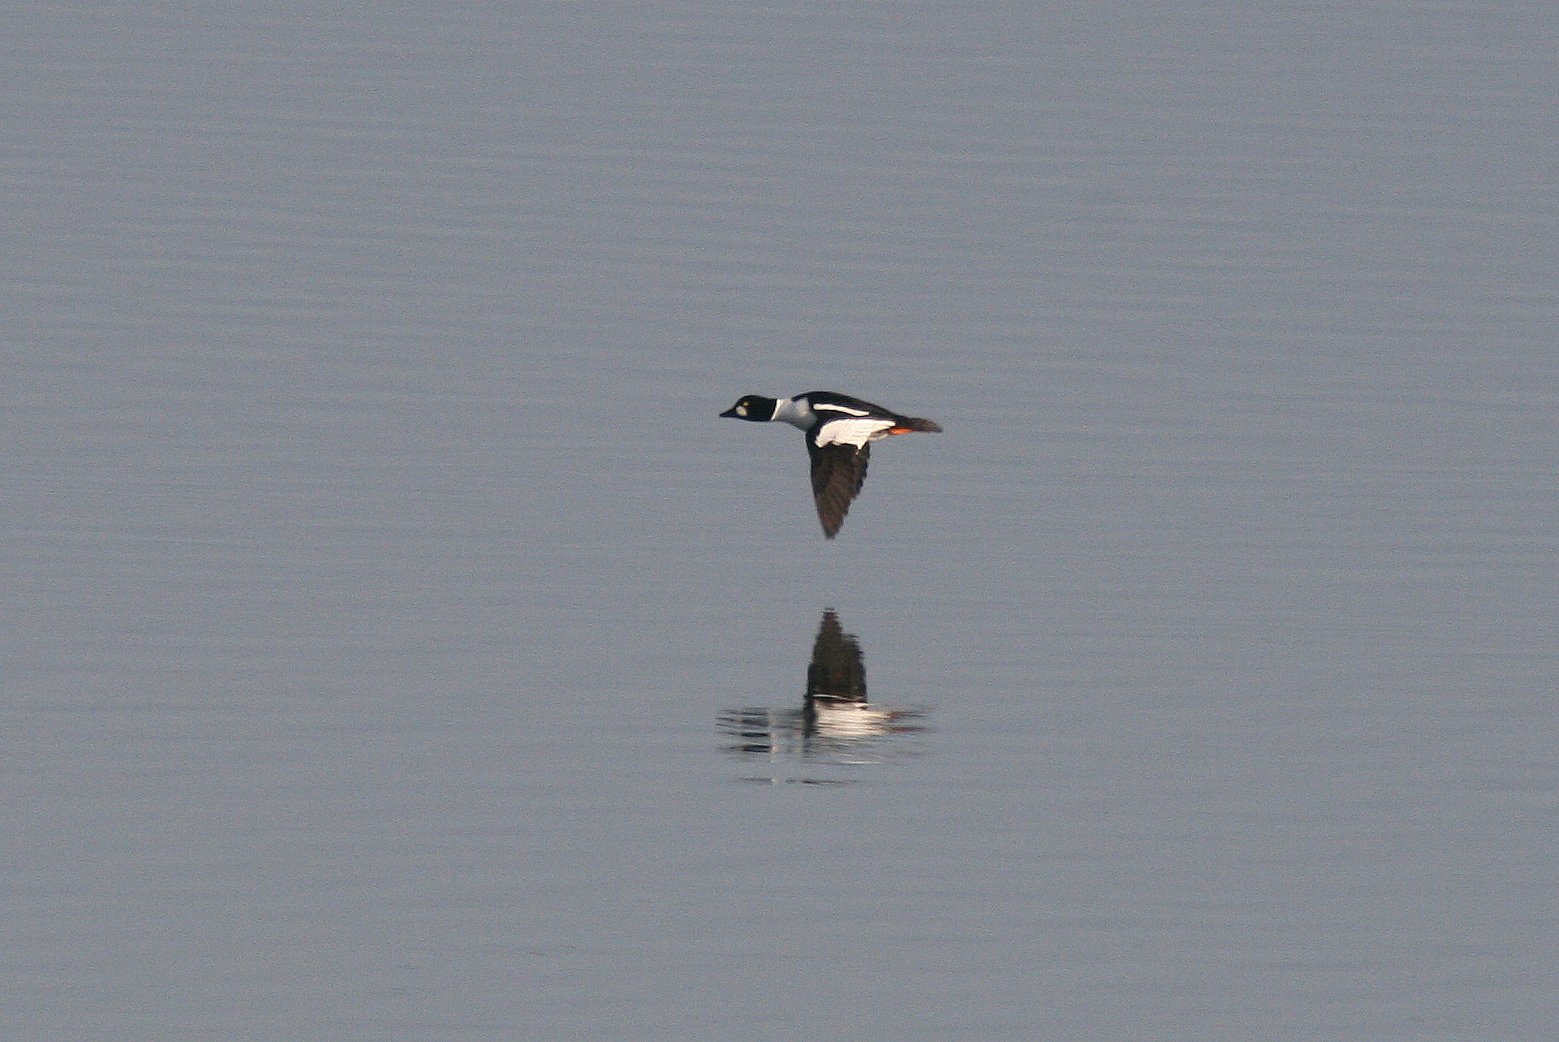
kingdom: Animalia
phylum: Chordata
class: Aves
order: Anseriformes
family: Anatidae
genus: Bucephala
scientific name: Bucephala clangula
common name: Common goldeneye
